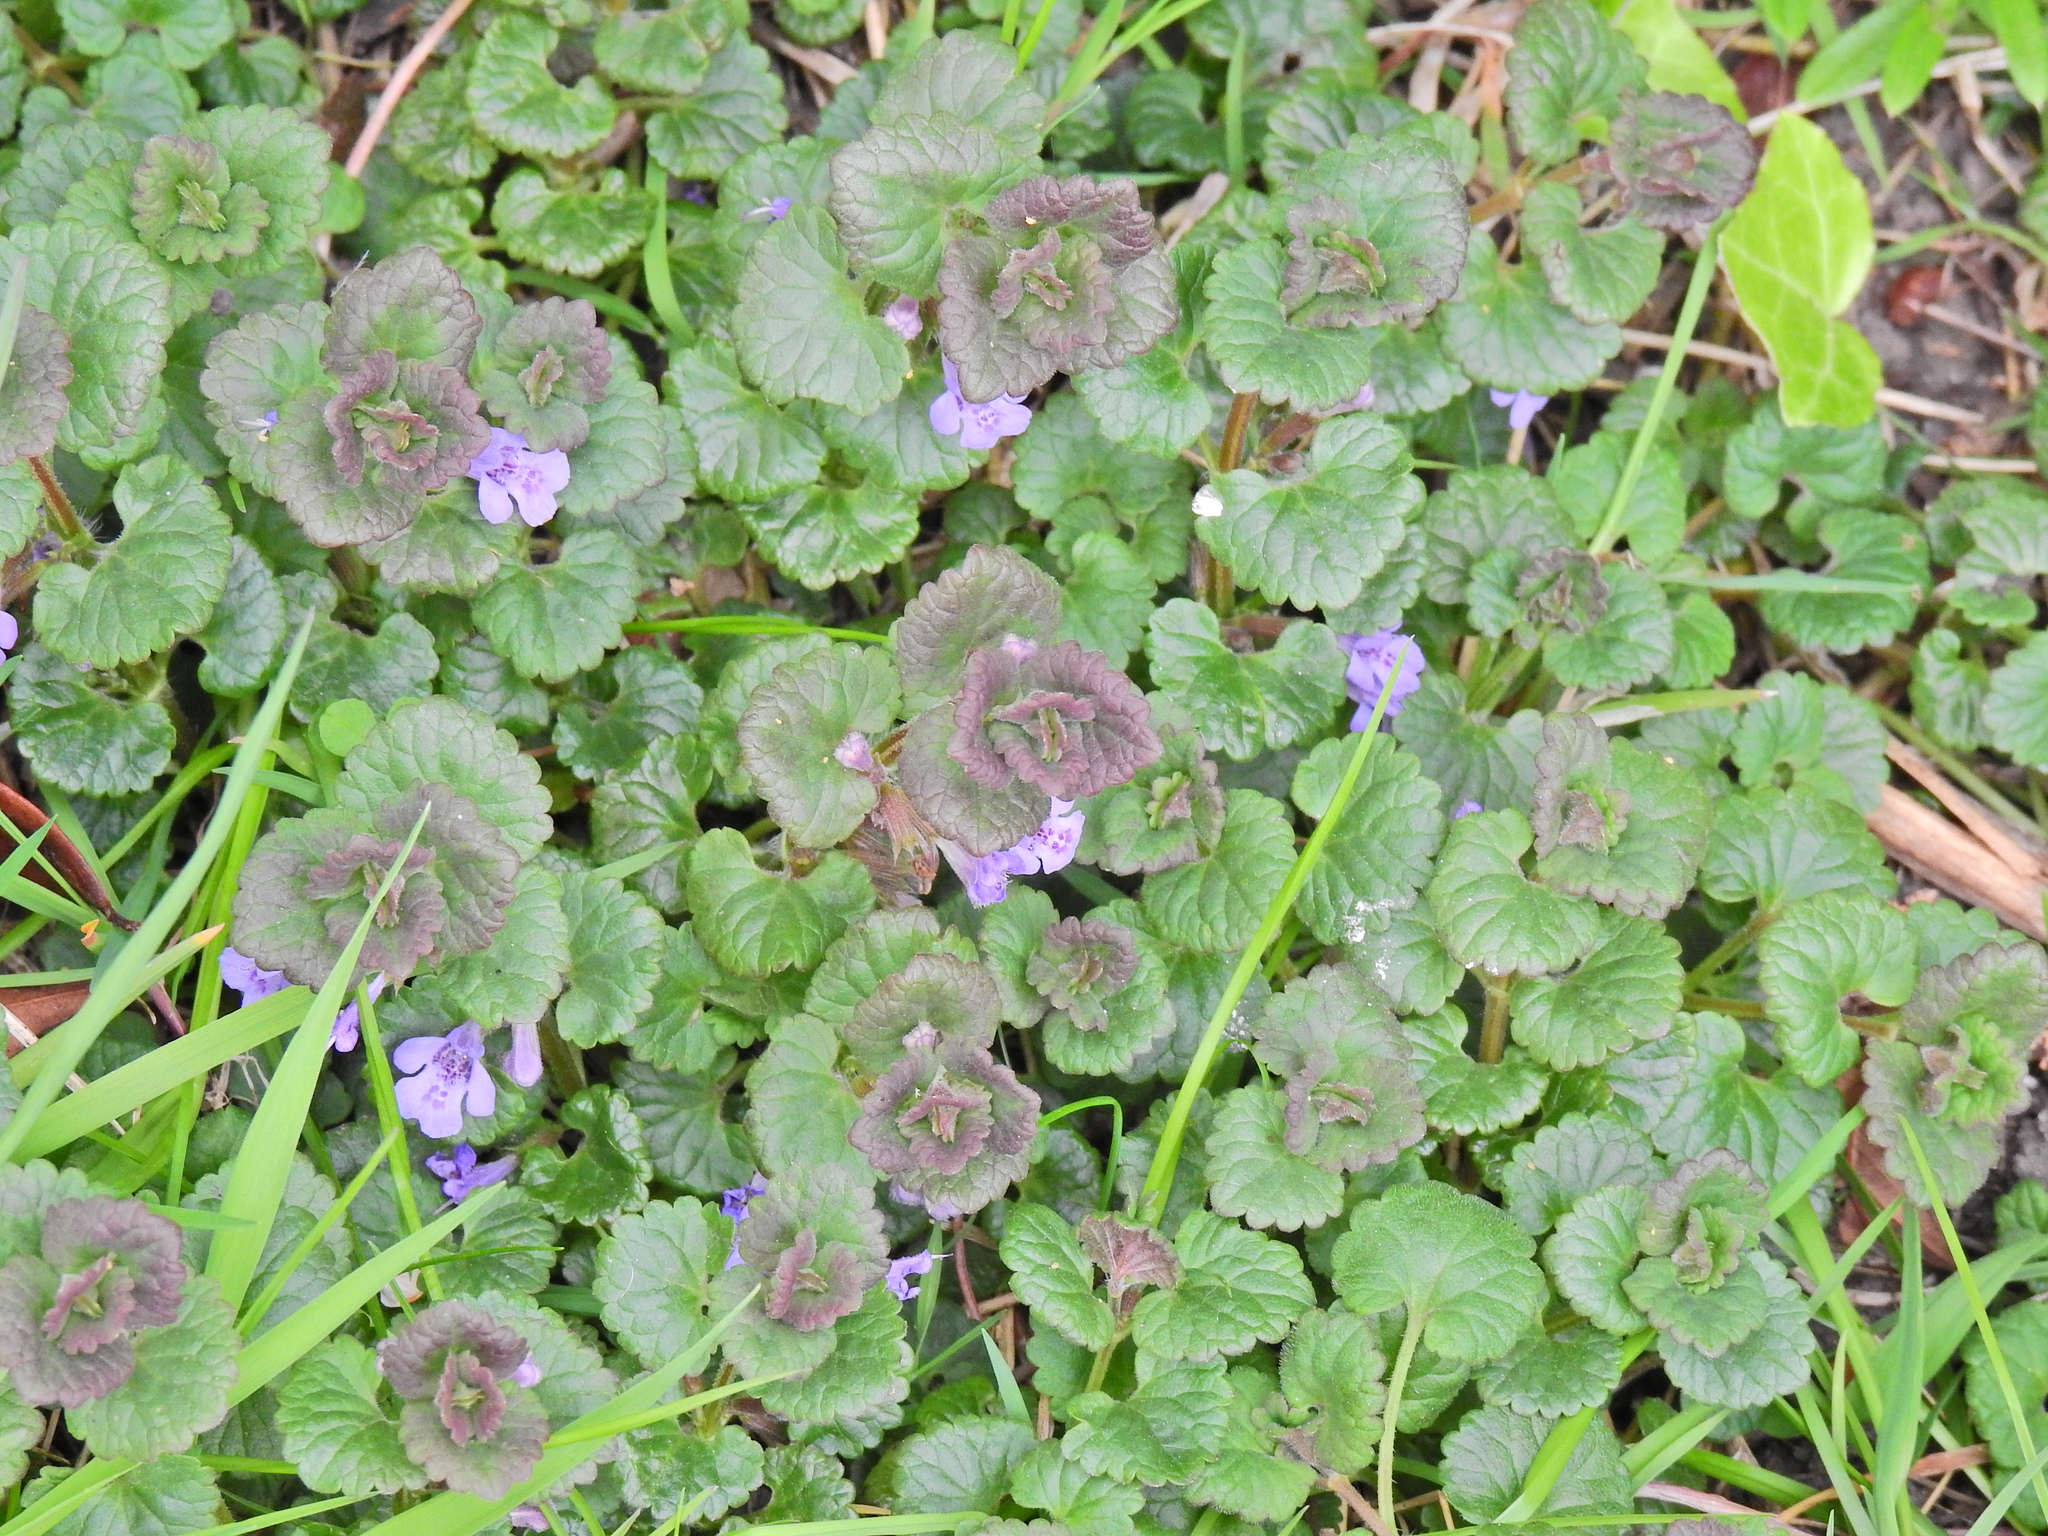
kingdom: Plantae
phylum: Tracheophyta
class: Magnoliopsida
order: Lamiales
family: Lamiaceae
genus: Glechoma
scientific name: Glechoma hederacea
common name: Ground ivy
